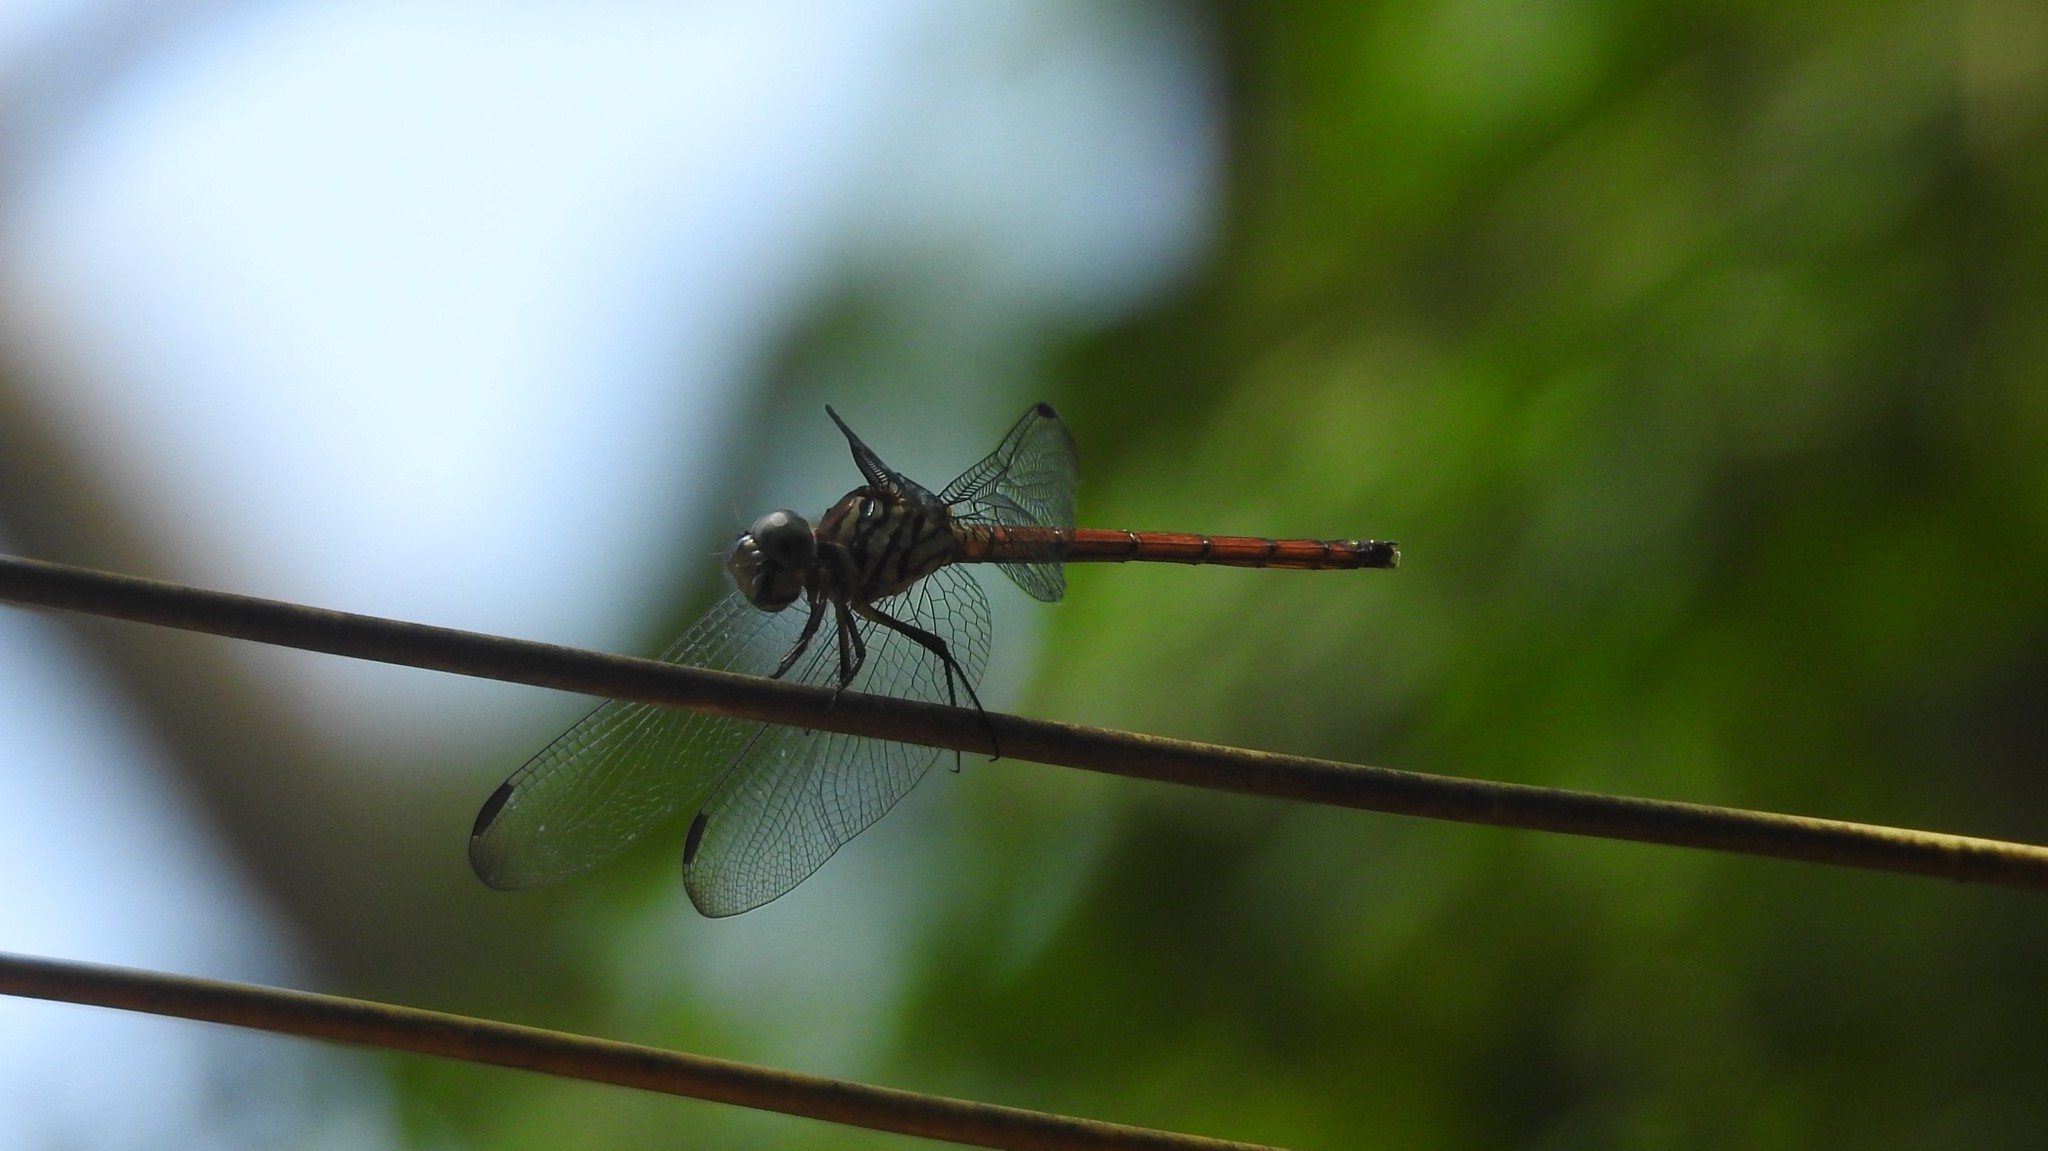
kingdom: Animalia
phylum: Arthropoda
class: Insecta
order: Odonata
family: Libellulidae
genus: Lathrecista
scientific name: Lathrecista asiatica
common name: Scarlet grenadier
